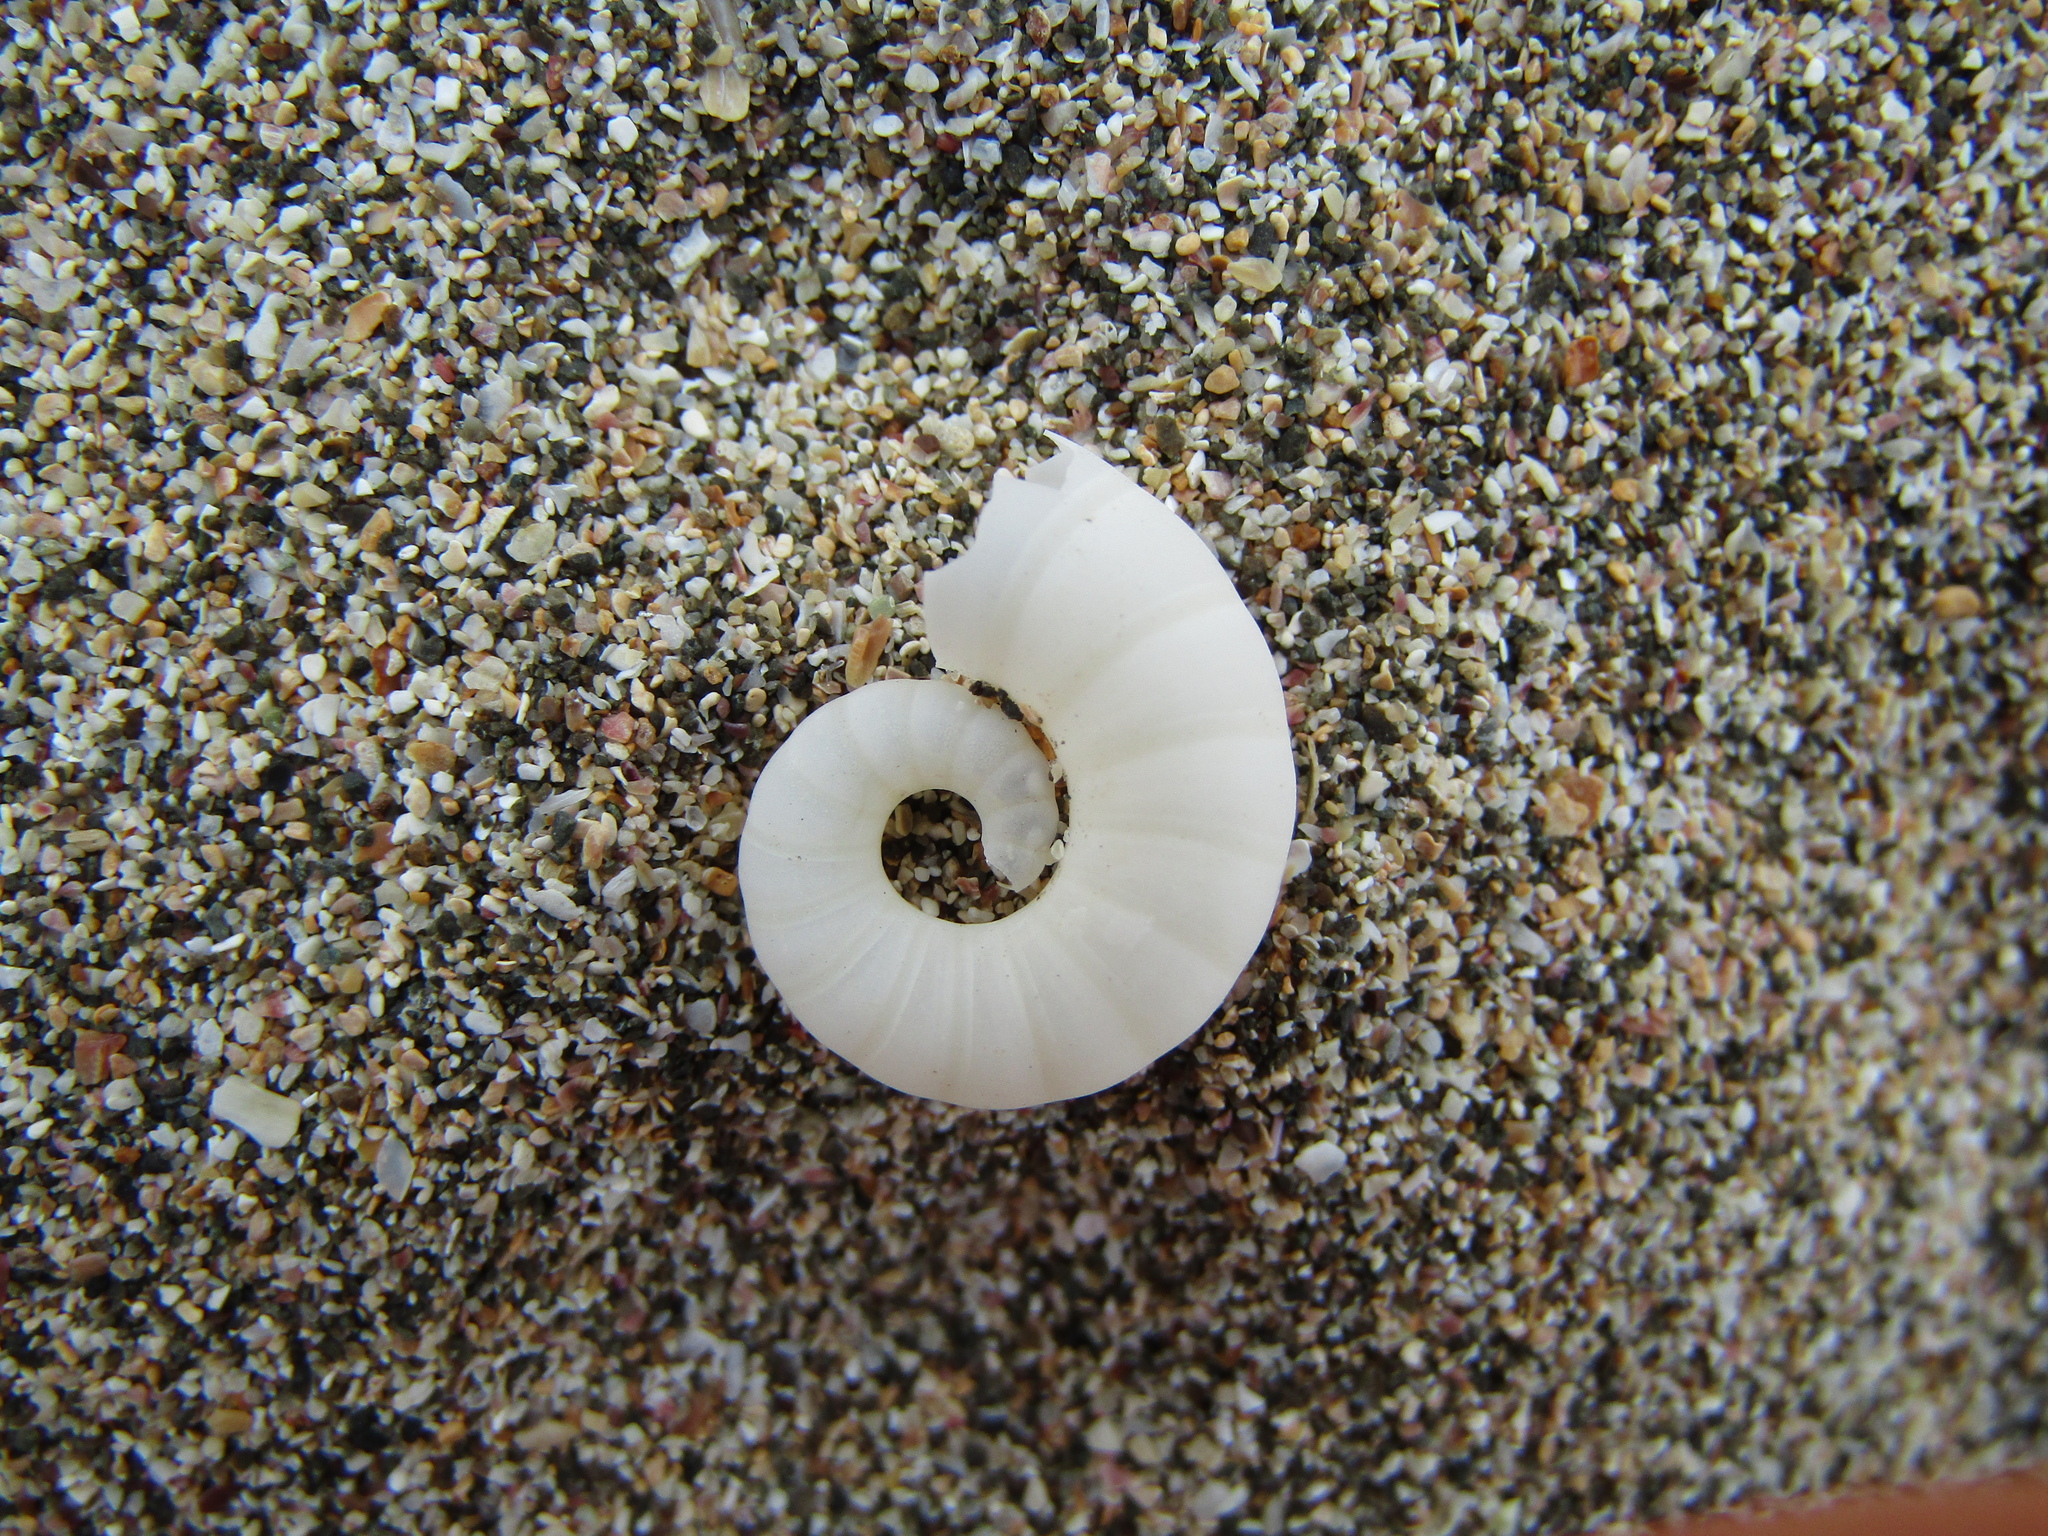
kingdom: Animalia
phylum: Mollusca
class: Cephalopoda
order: Spirulida
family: Spirulidae
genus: Spirula
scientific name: Spirula spirula
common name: Ram's horn squid
